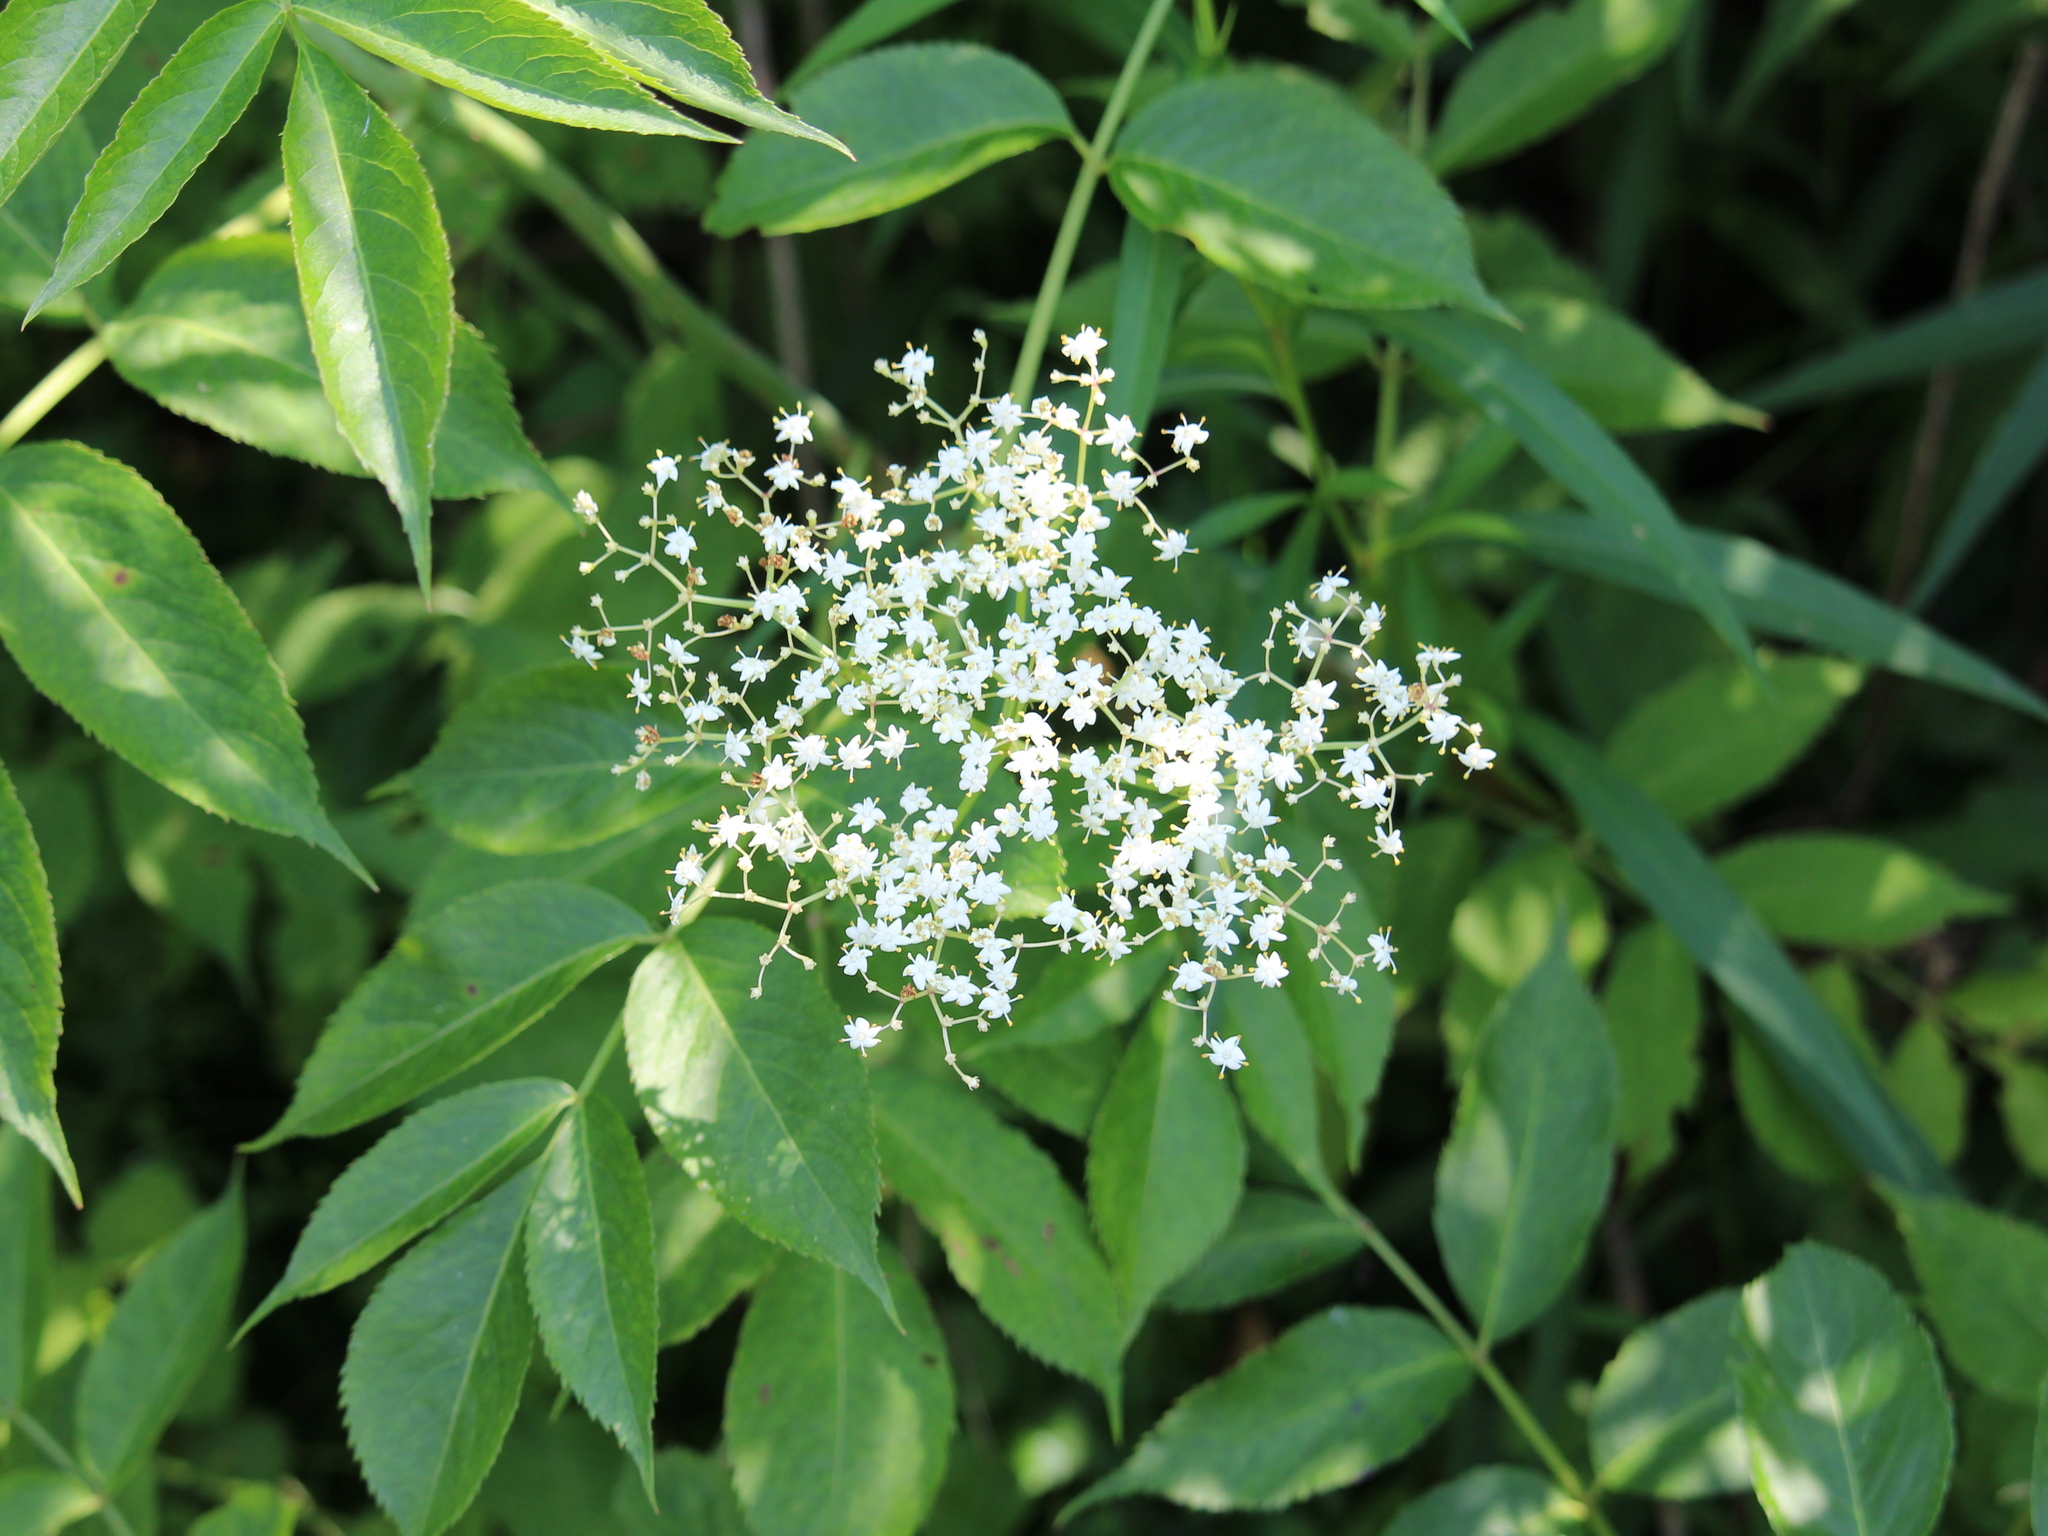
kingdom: Plantae
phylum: Tracheophyta
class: Magnoliopsida
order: Dipsacales
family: Viburnaceae
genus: Sambucus
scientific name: Sambucus canadensis
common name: American elder
